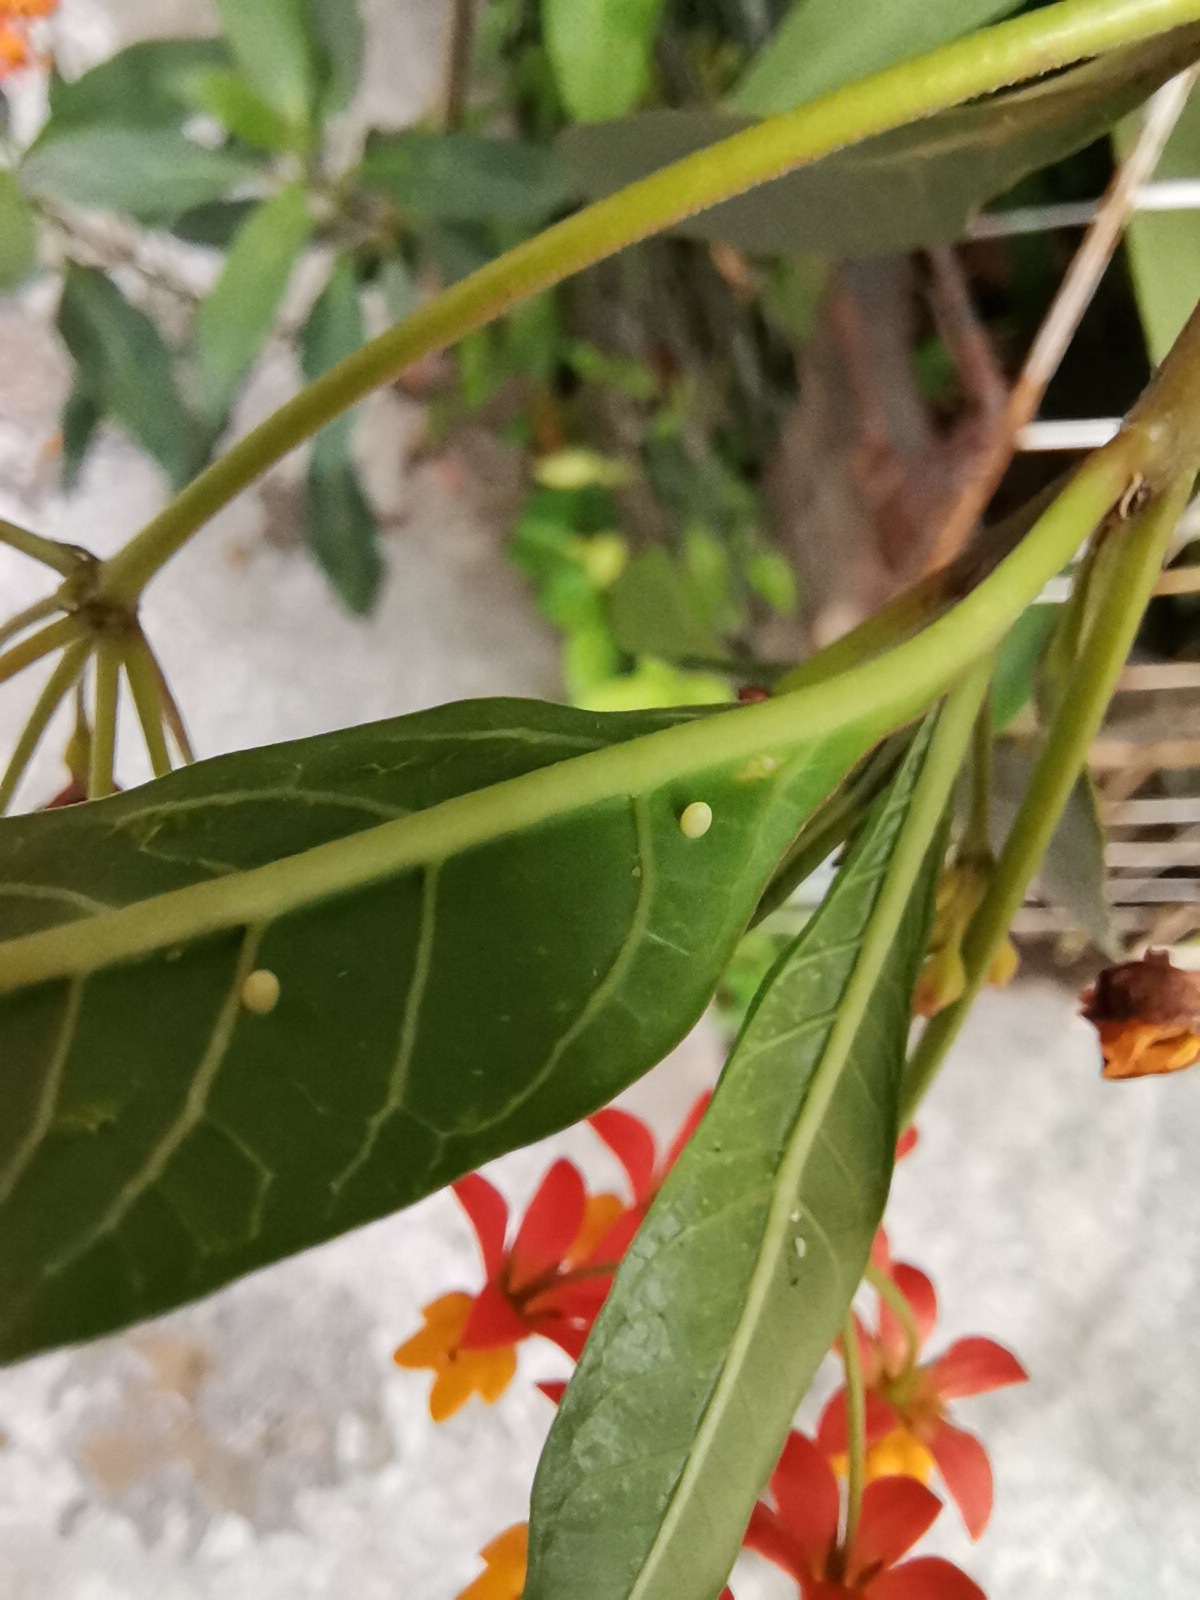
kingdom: Animalia
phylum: Arthropoda
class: Insecta
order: Lepidoptera
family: Nymphalidae
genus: Danaus
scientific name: Danaus plexippus
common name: Monarch
